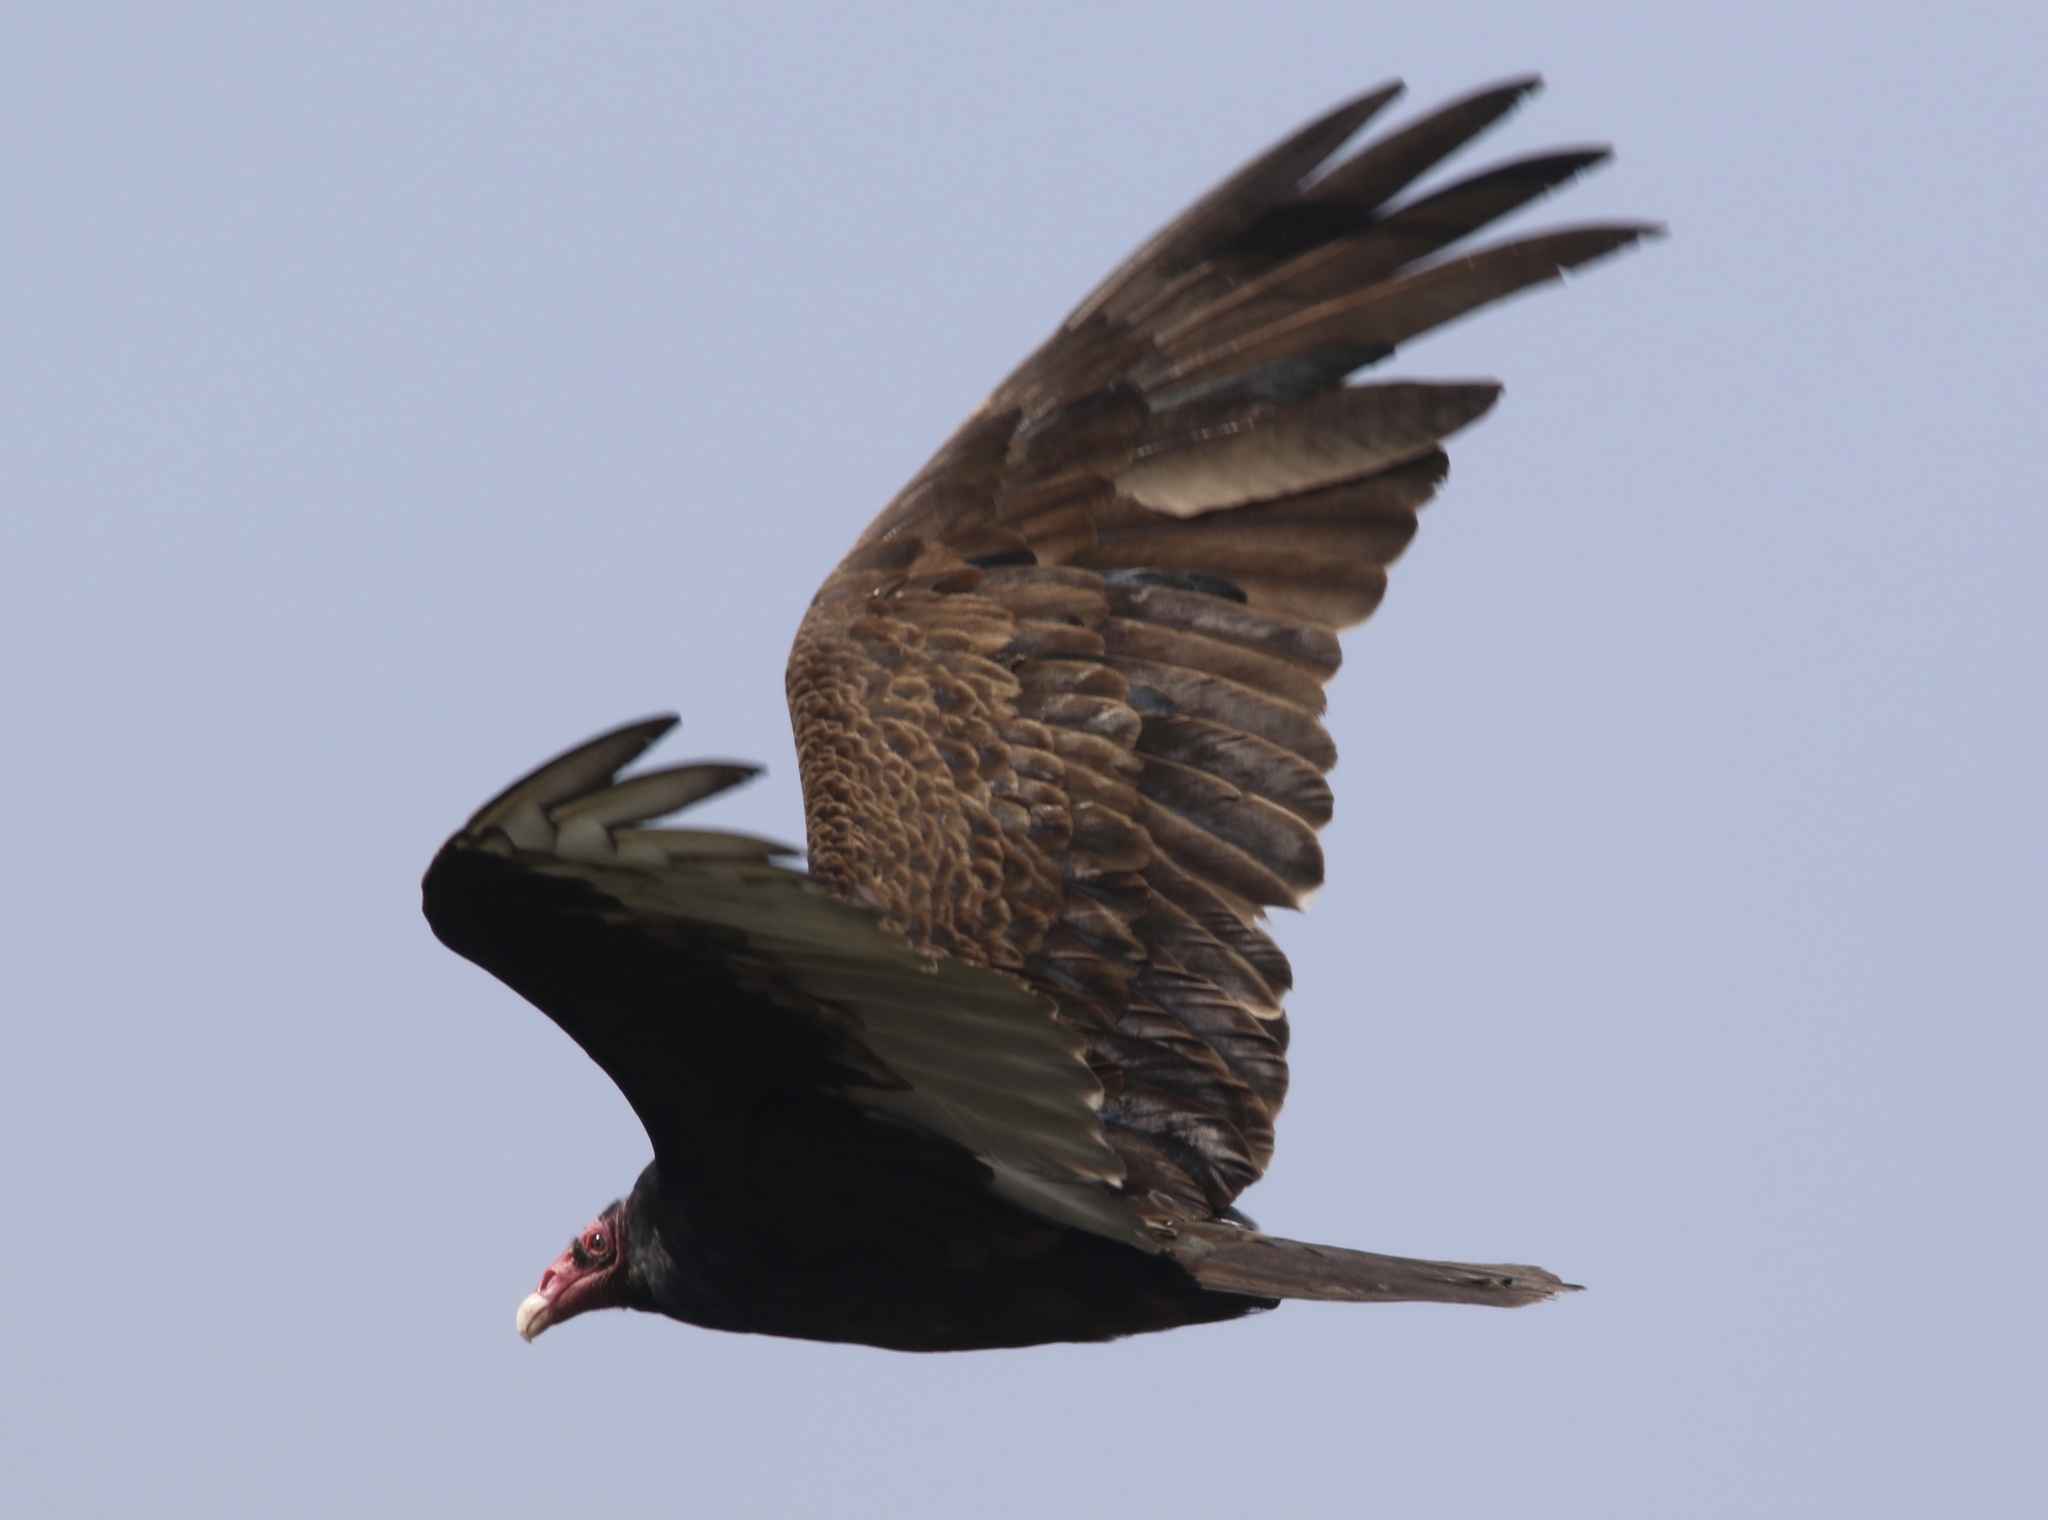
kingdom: Animalia
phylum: Chordata
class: Aves
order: Accipitriformes
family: Cathartidae
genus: Cathartes
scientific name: Cathartes aura
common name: Turkey vulture
